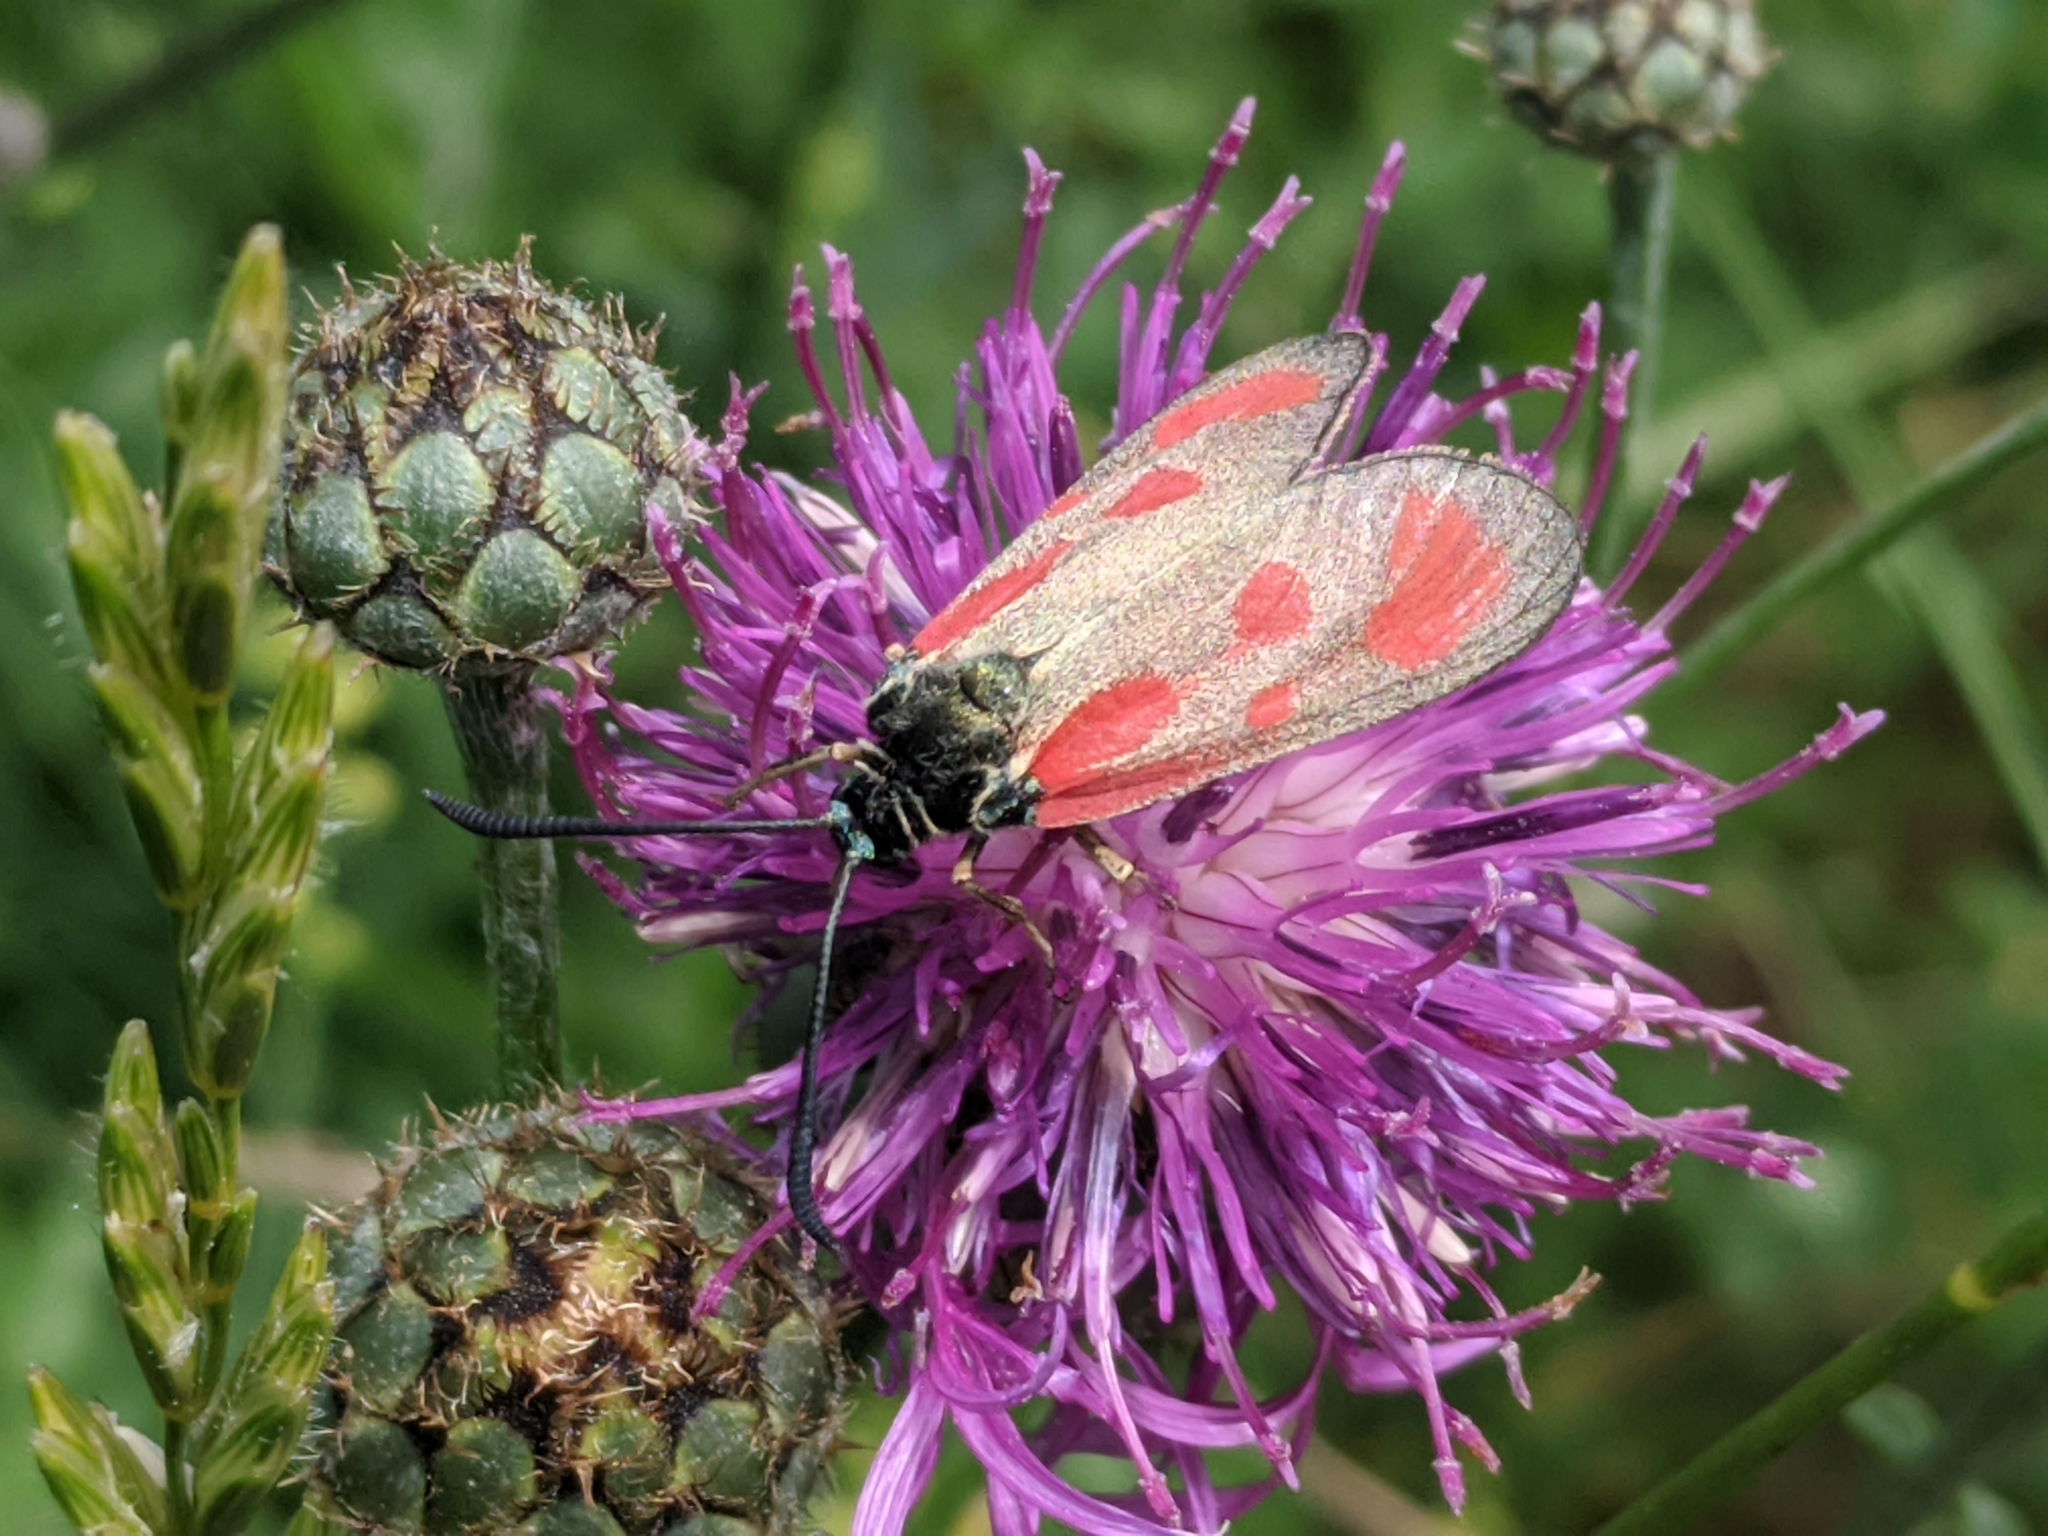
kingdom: Animalia
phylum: Arthropoda
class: Insecta
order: Lepidoptera
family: Zygaenidae
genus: Zygaena
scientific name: Zygaena loti
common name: Slender scotch burnet
